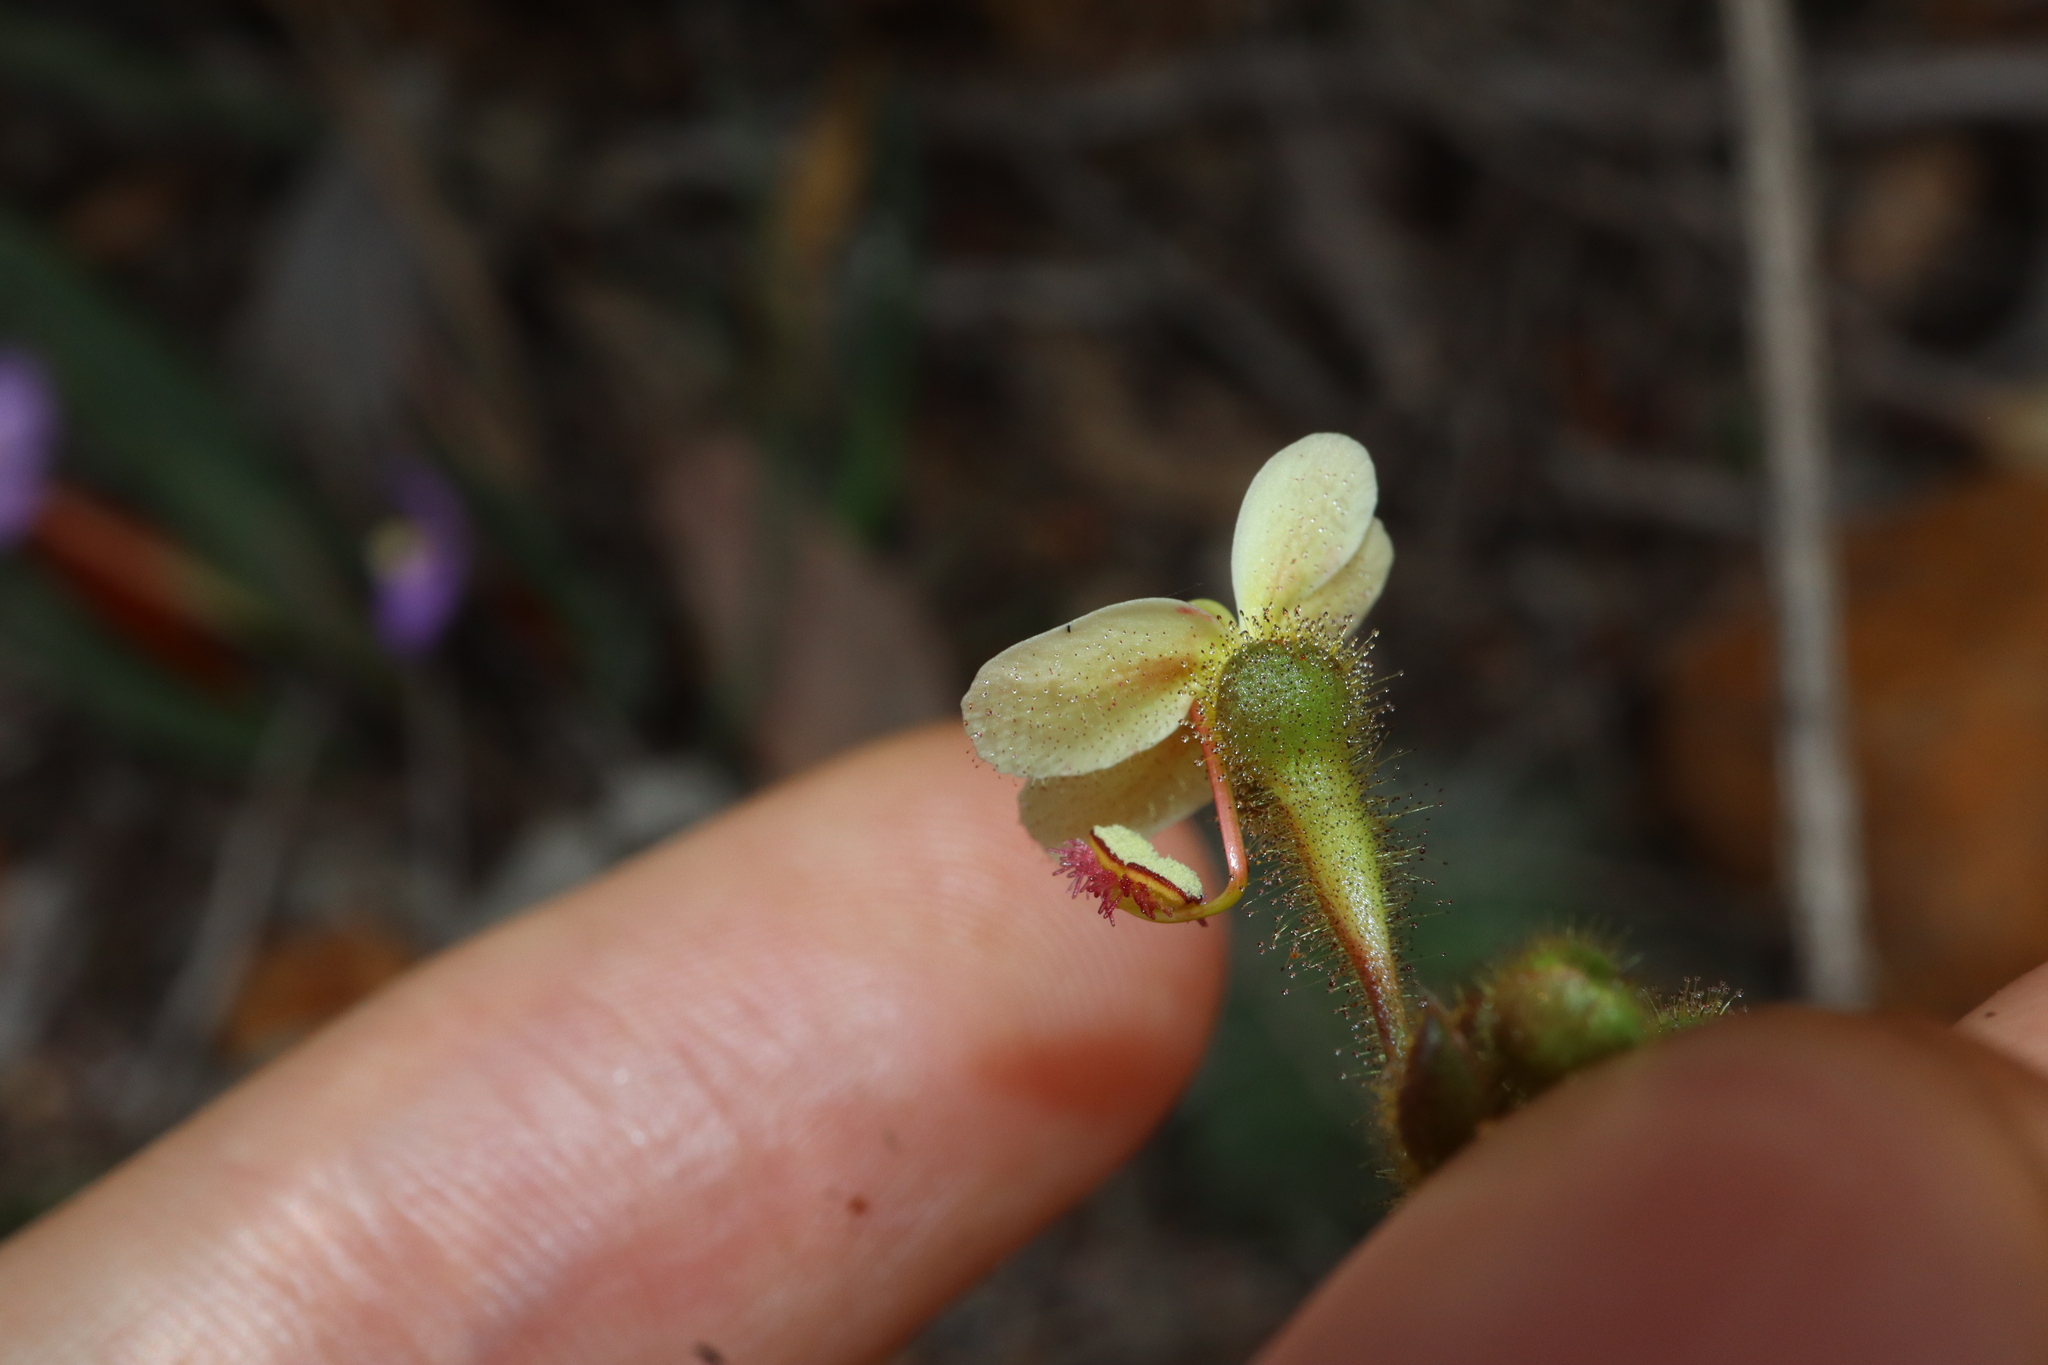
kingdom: Plantae
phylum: Tracheophyta
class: Magnoliopsida
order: Asterales
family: Stylidiaceae
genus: Stylidium
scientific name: Stylidium ciliatum
